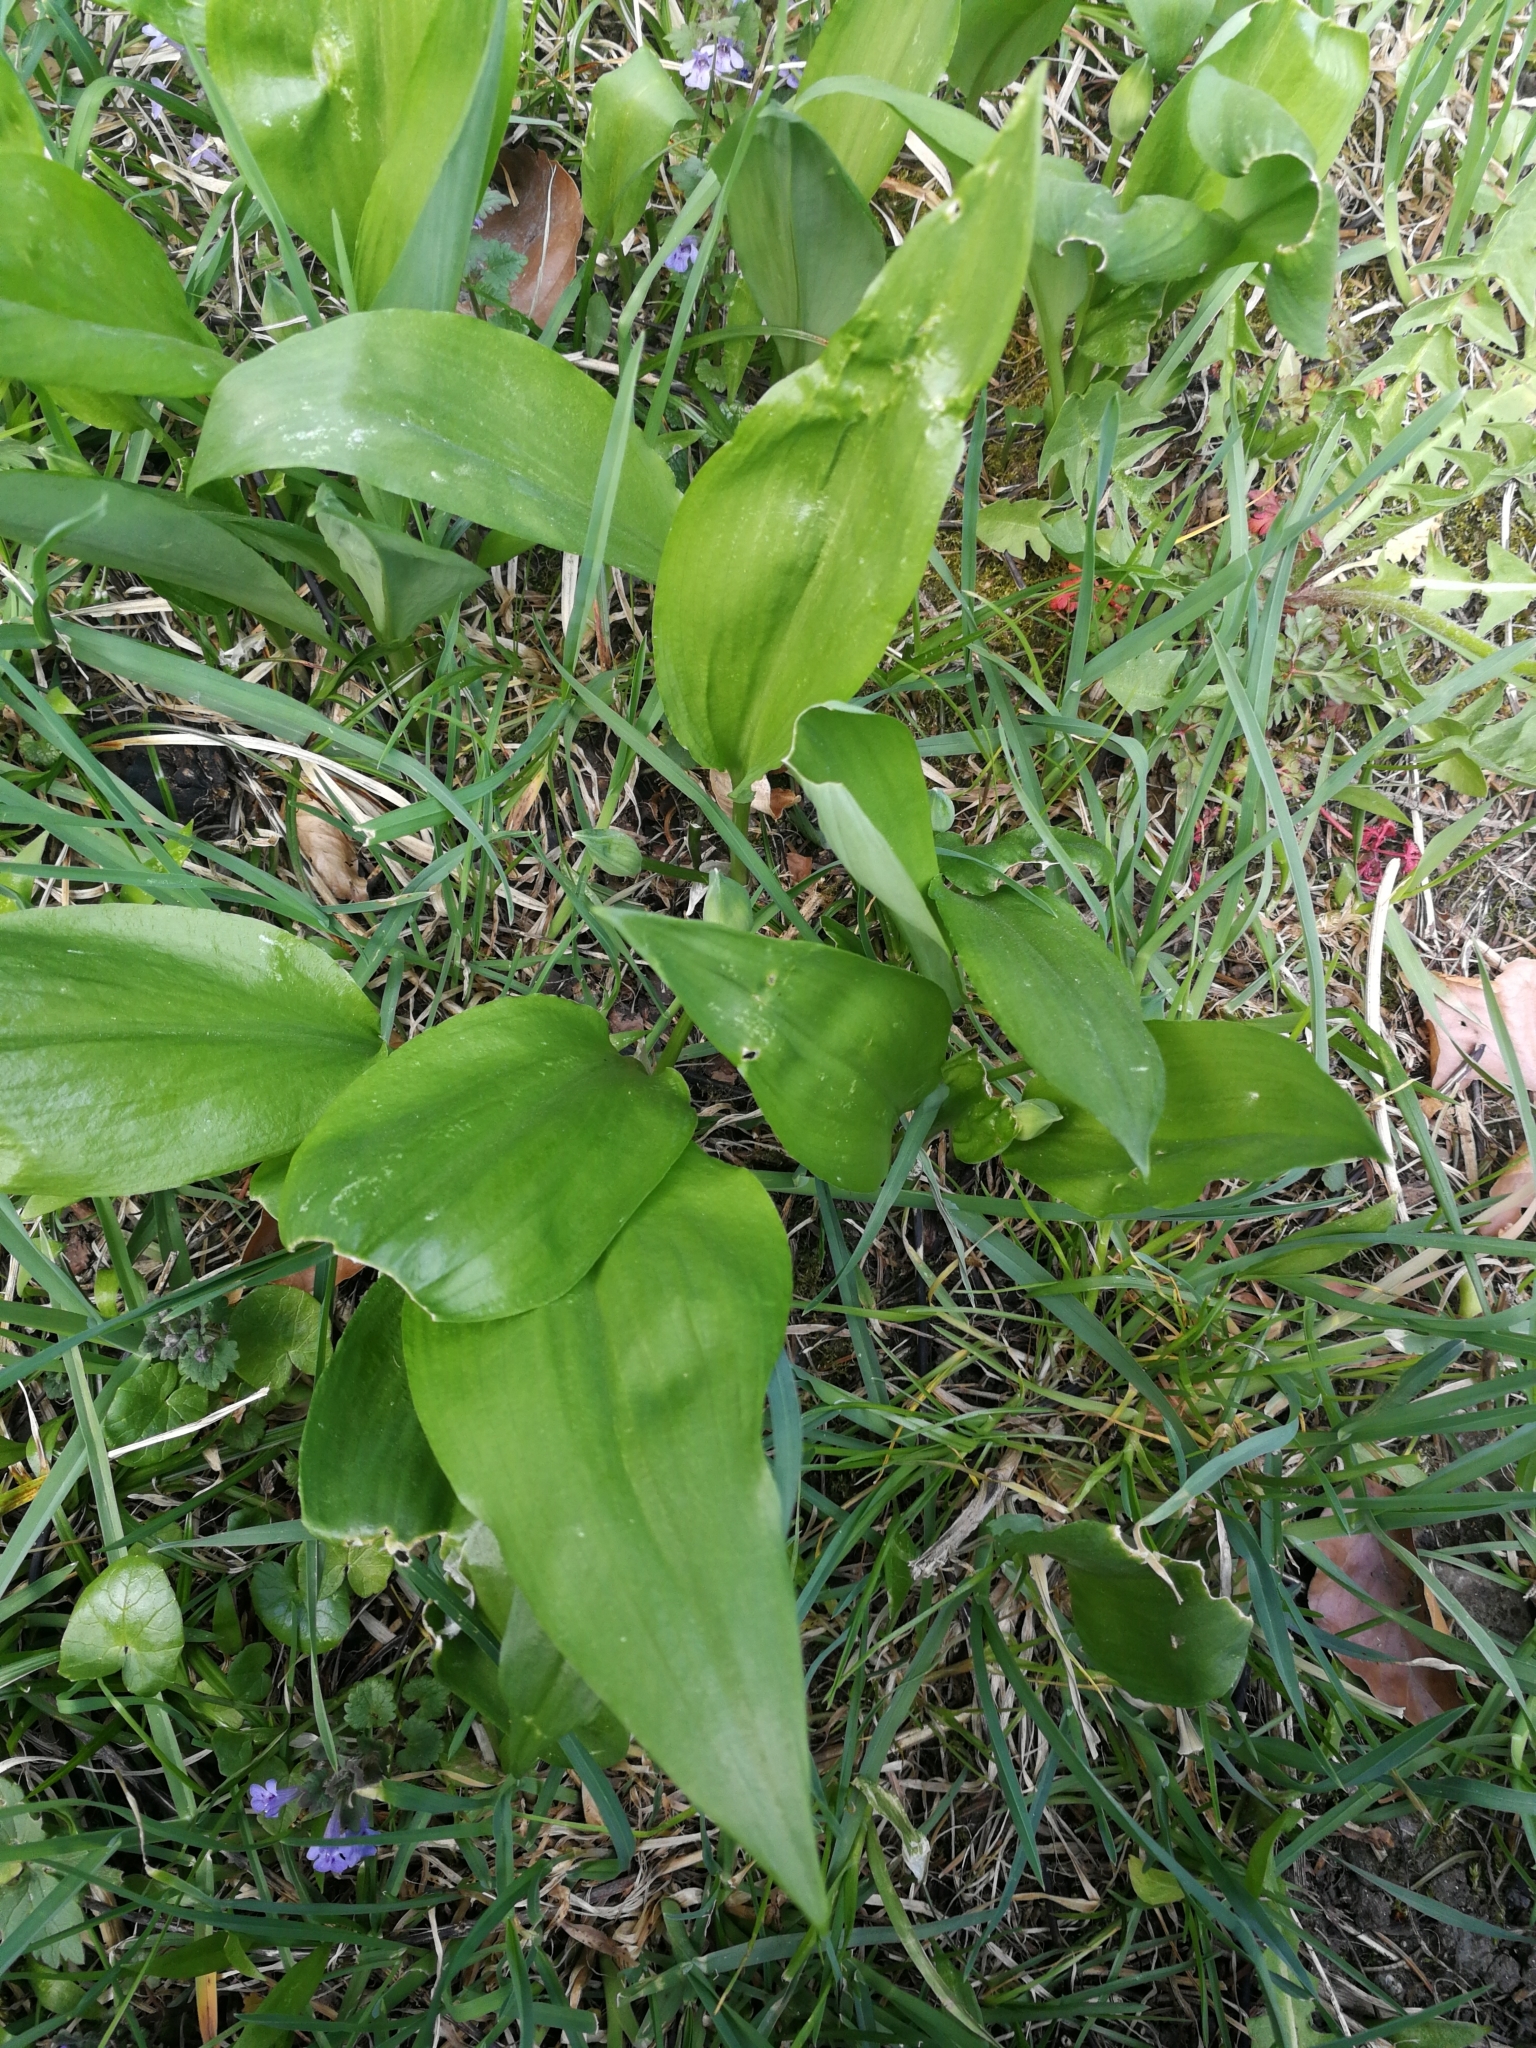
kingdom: Plantae
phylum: Tracheophyta
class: Liliopsida
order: Asparagales
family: Amaryllidaceae
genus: Allium
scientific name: Allium ursinum
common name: Ramsons
